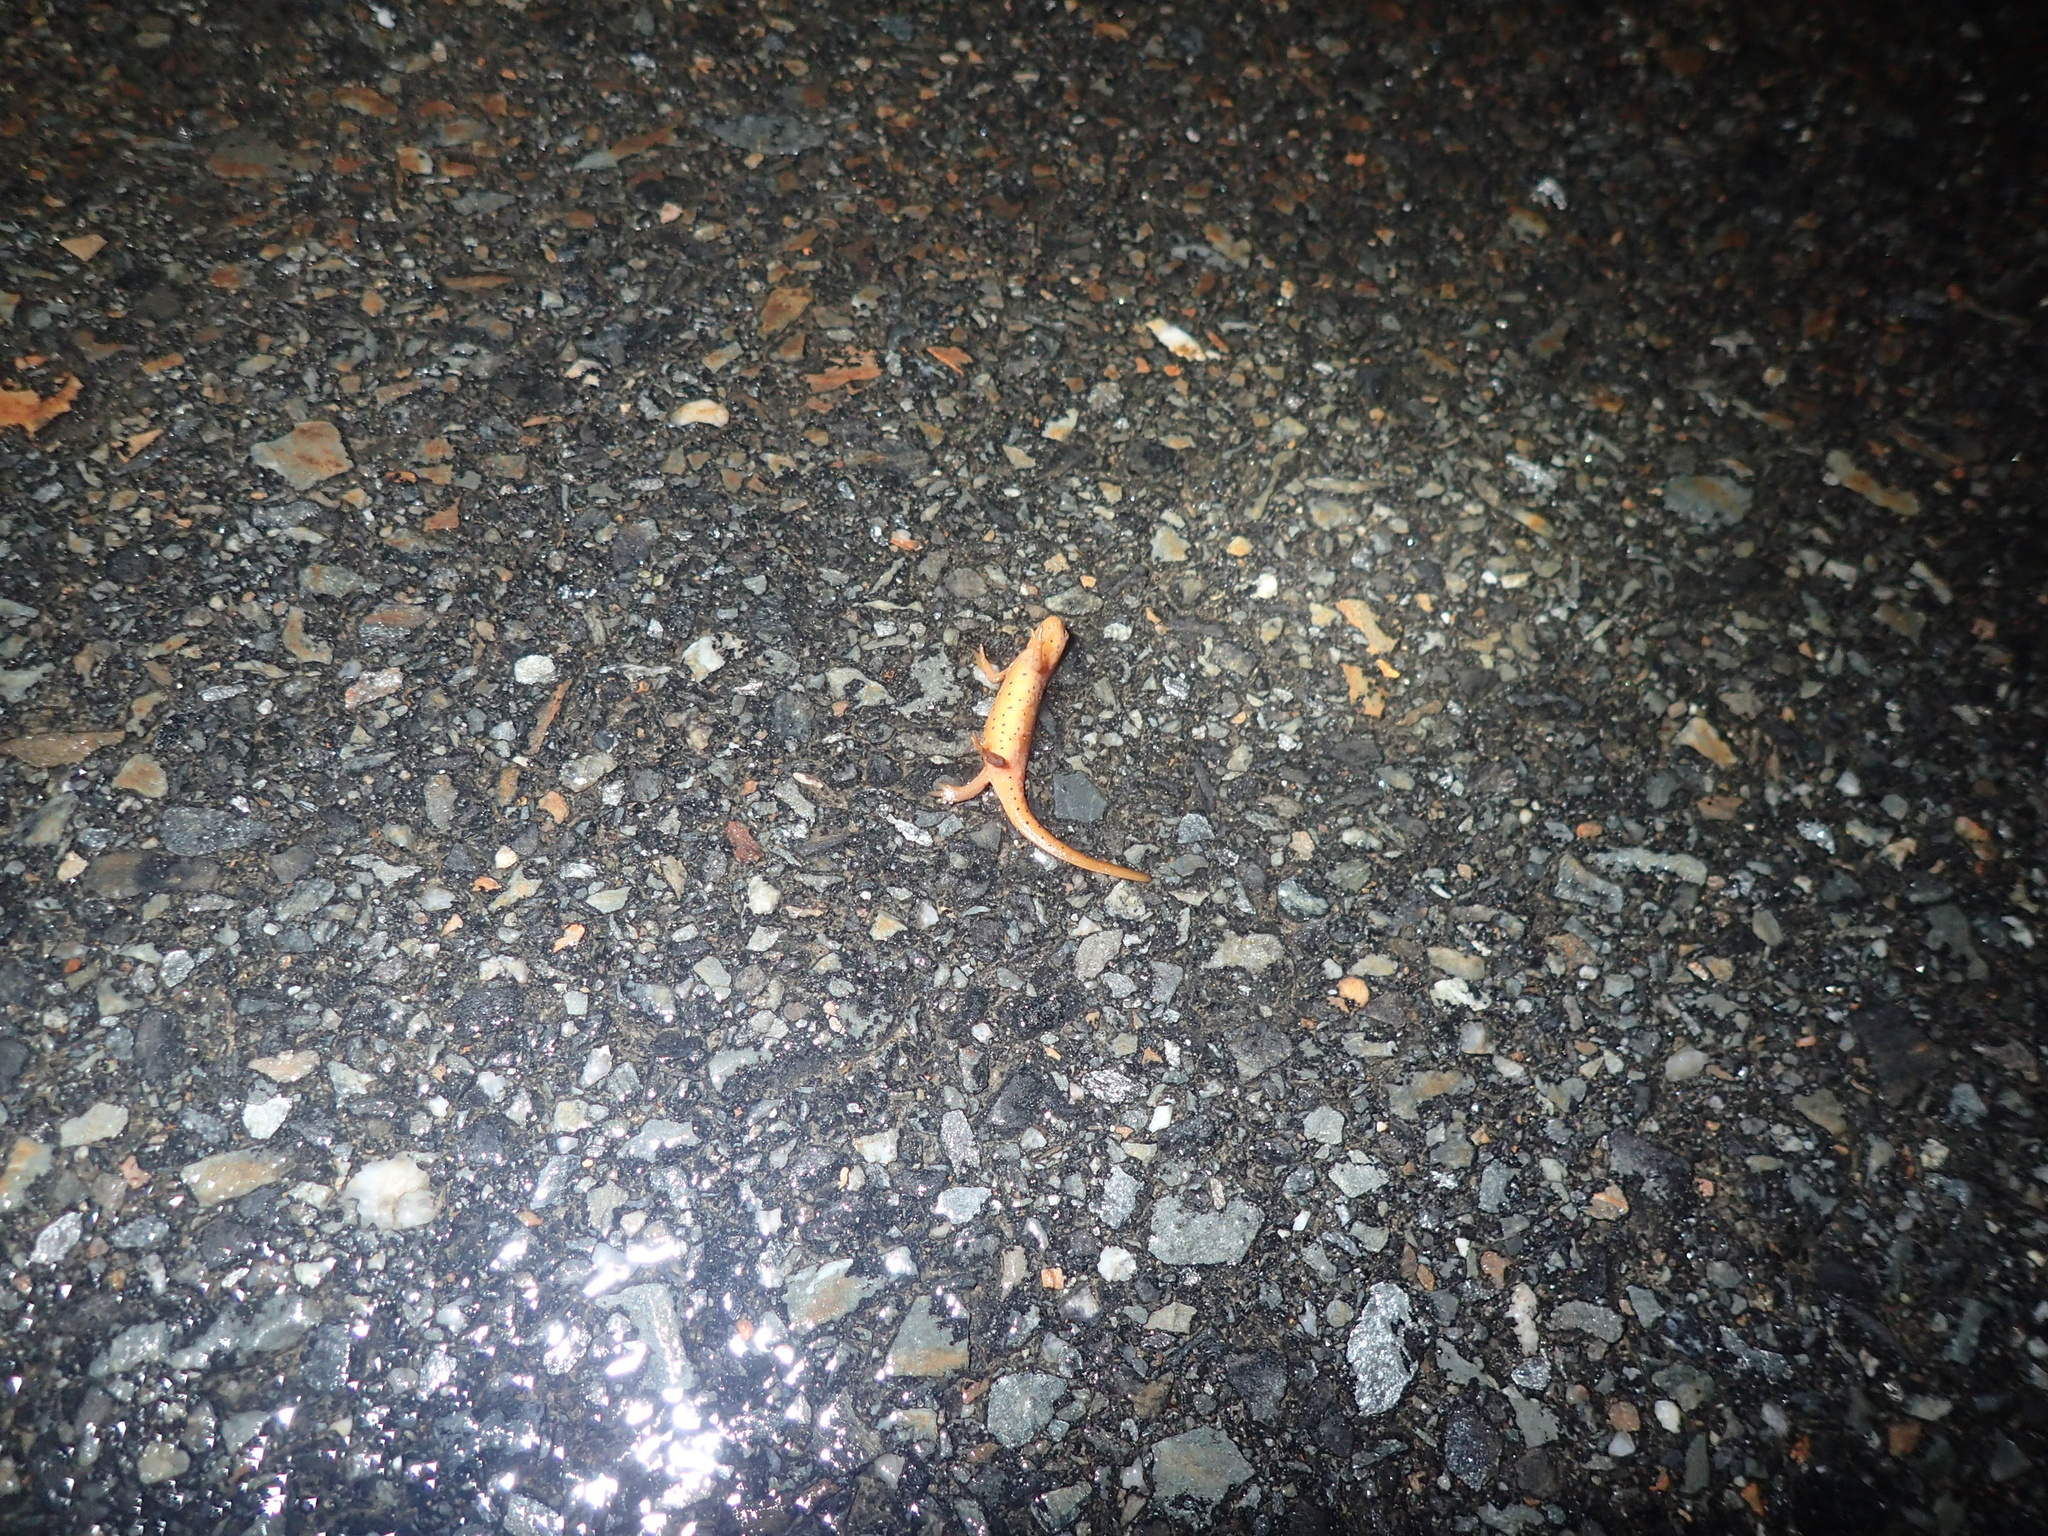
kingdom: Animalia
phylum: Chordata
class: Amphibia
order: Caudata
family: Salamandridae
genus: Notophthalmus
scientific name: Notophthalmus viridescens
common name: Eastern newt
